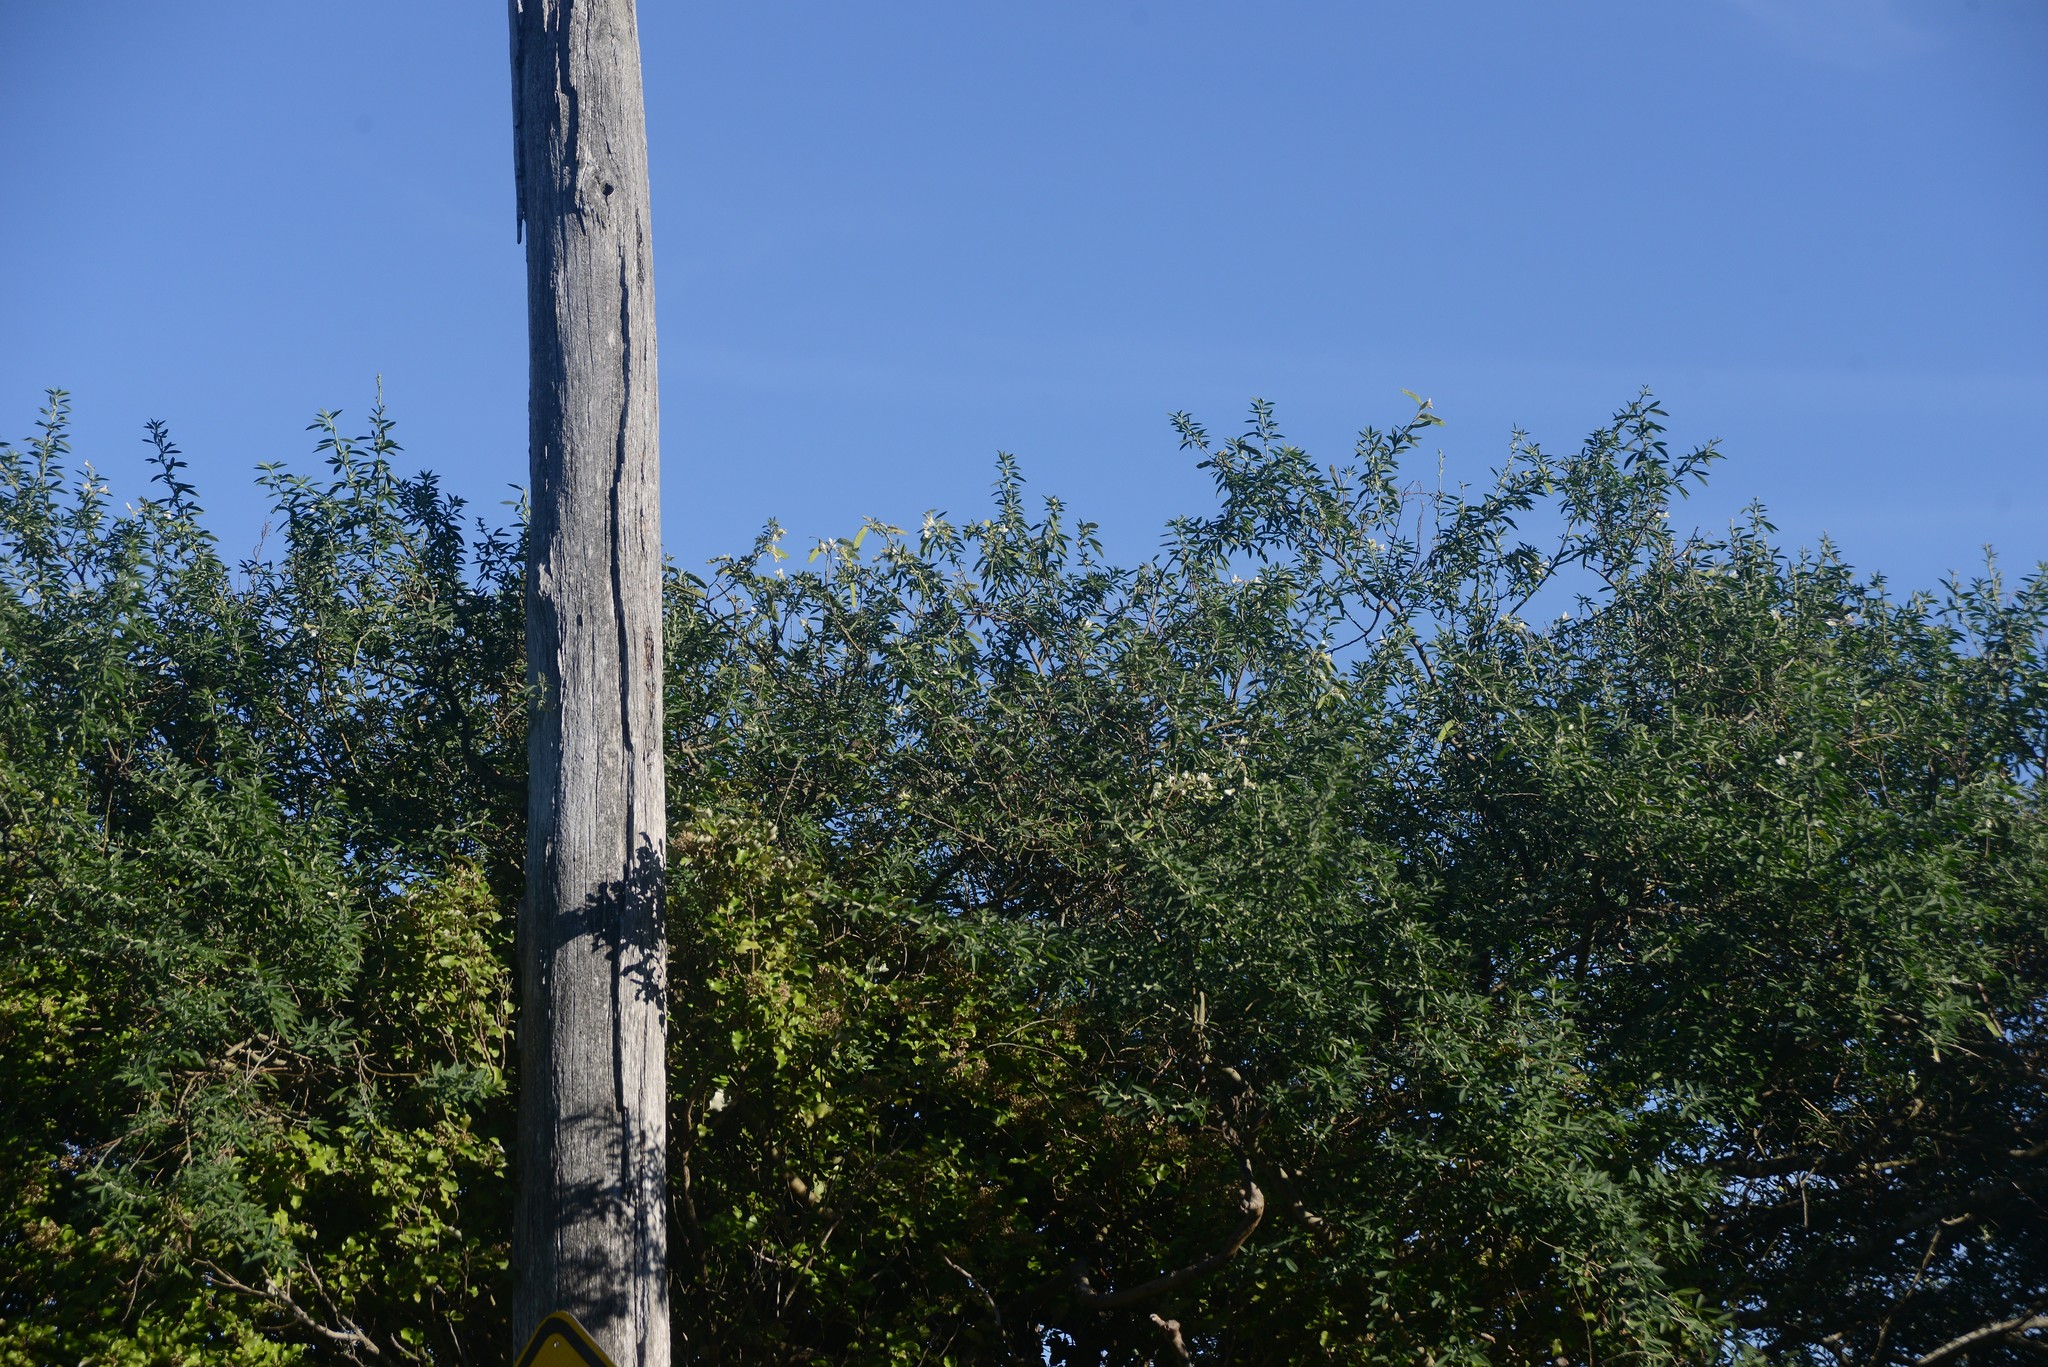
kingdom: Plantae
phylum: Tracheophyta
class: Magnoliopsida
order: Fabales
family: Fabaceae
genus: Chamaecytisus
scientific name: Chamaecytisus prolifer
